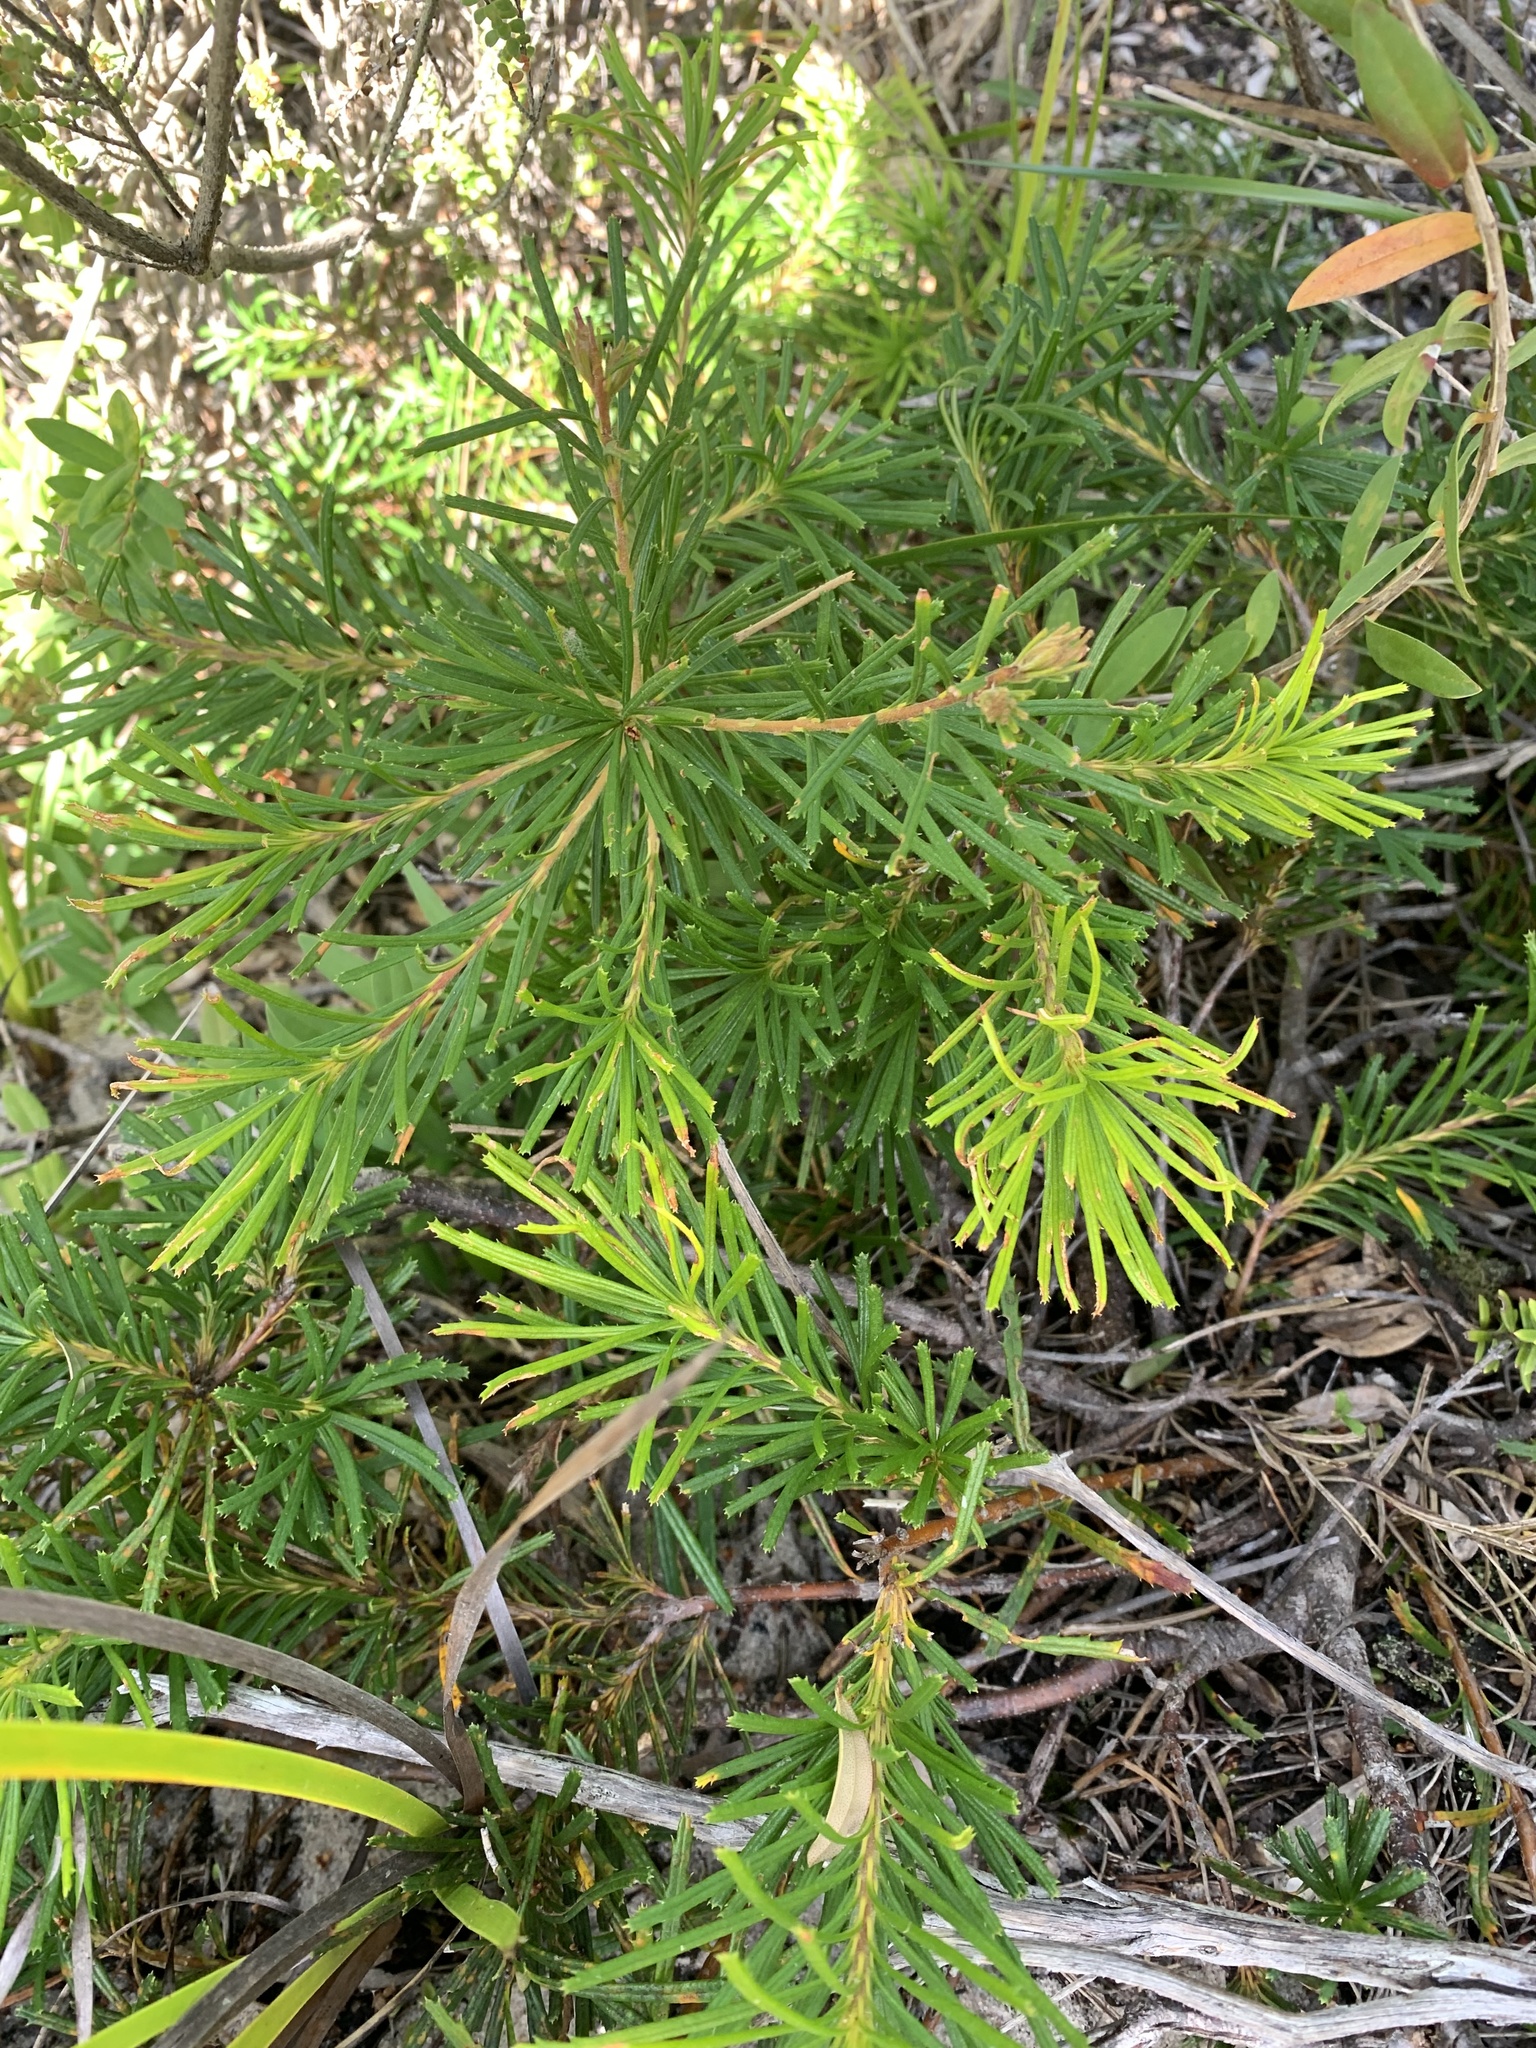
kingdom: Plantae
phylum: Tracheophyta
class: Magnoliopsida
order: Proteales
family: Proteaceae
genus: Banksia
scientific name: Banksia spinulosa
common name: Hairpin banksia
